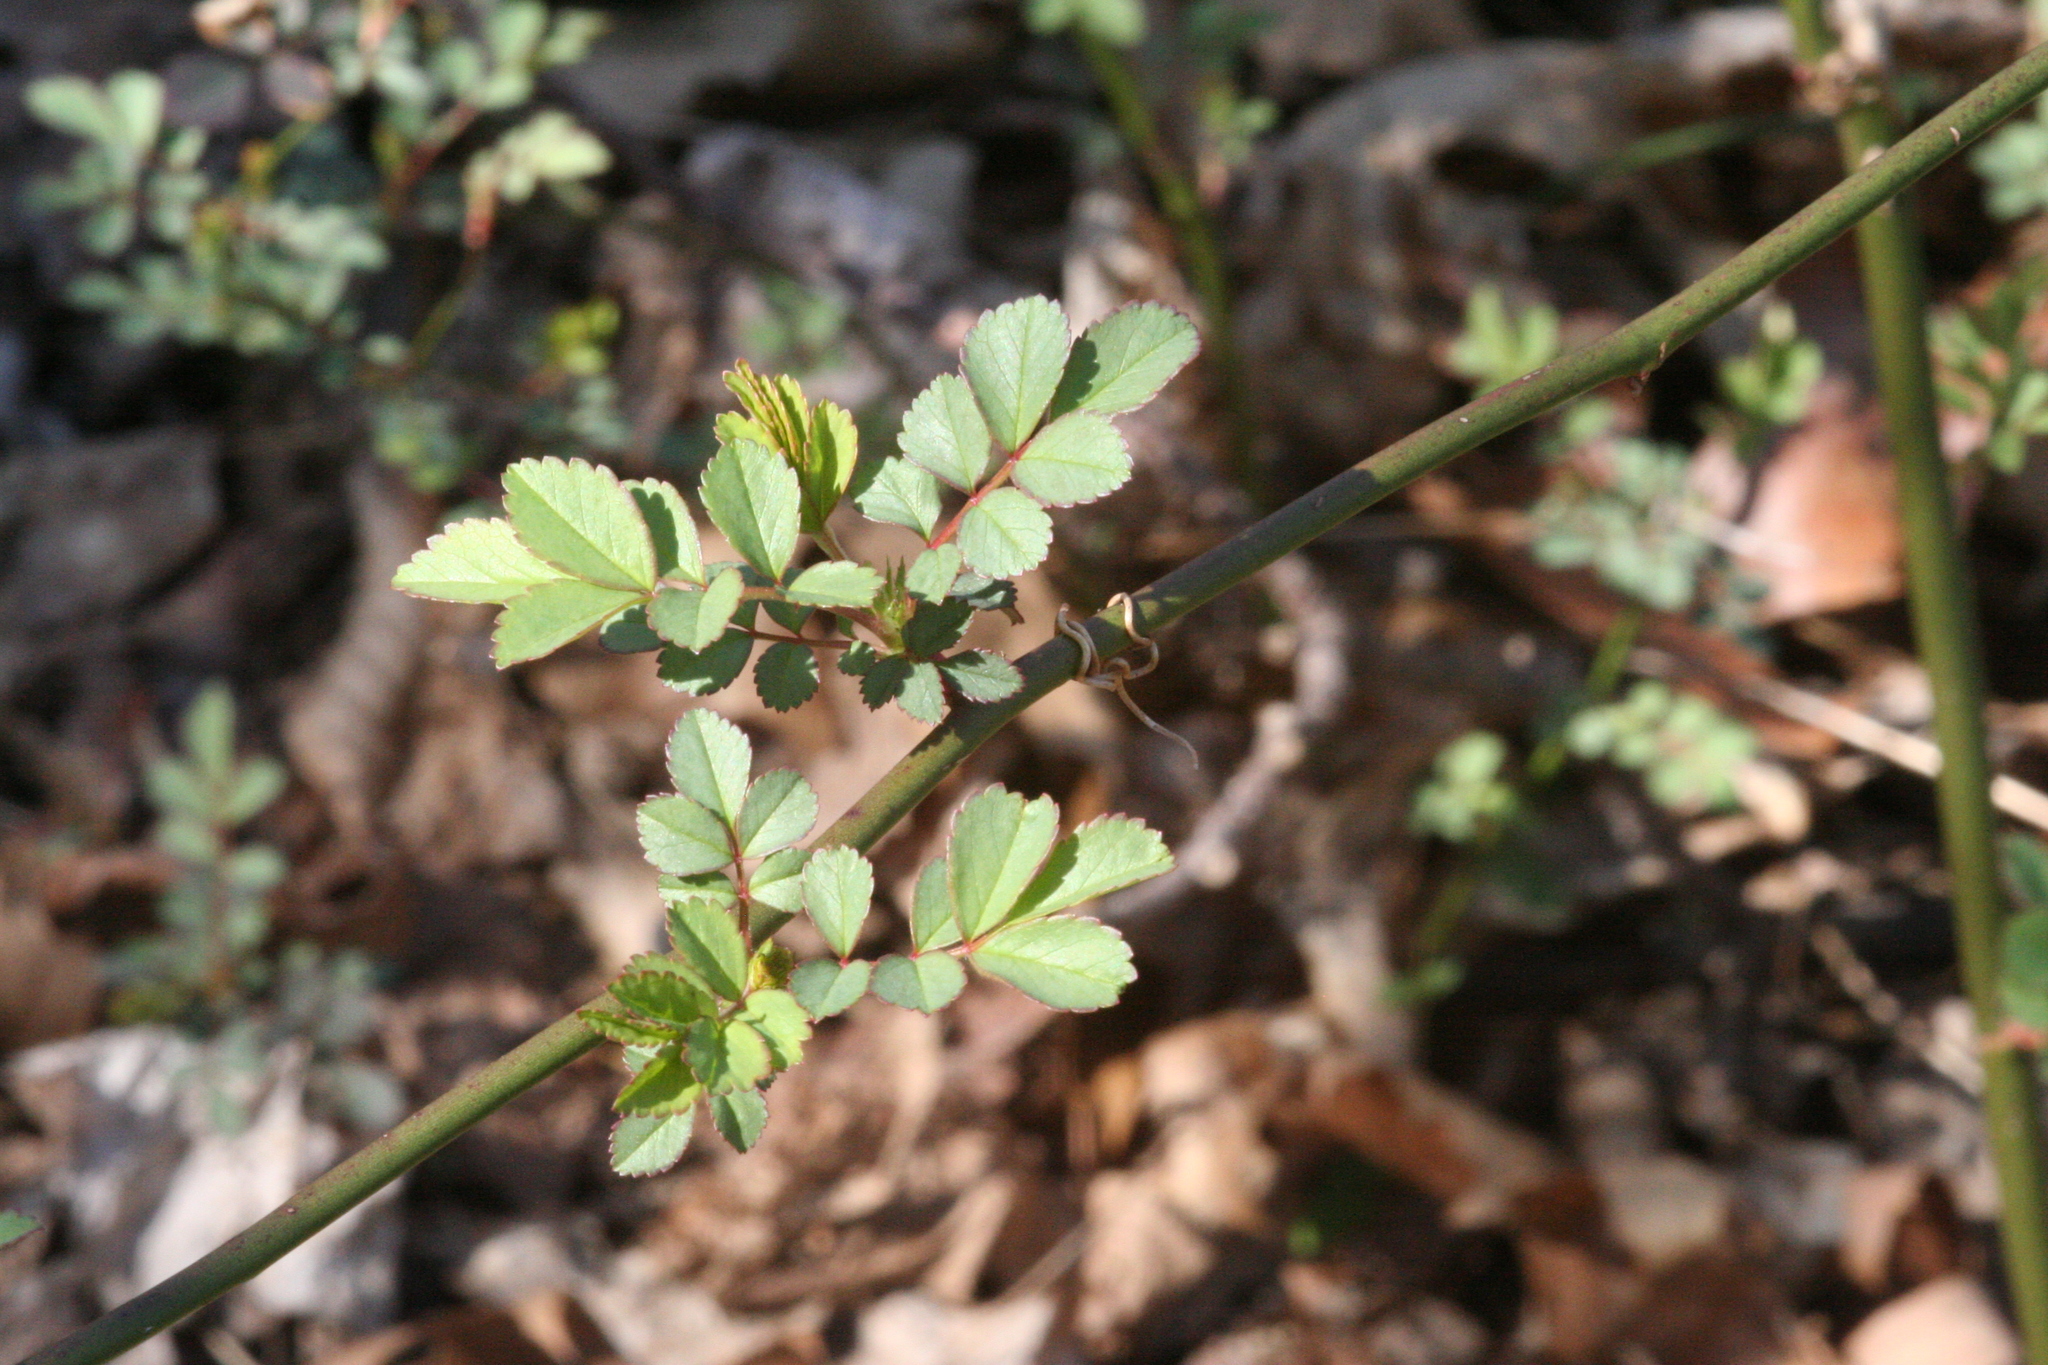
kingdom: Plantae
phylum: Tracheophyta
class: Magnoliopsida
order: Rosales
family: Rosaceae
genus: Rosa
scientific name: Rosa multiflora
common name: Multiflora rose
